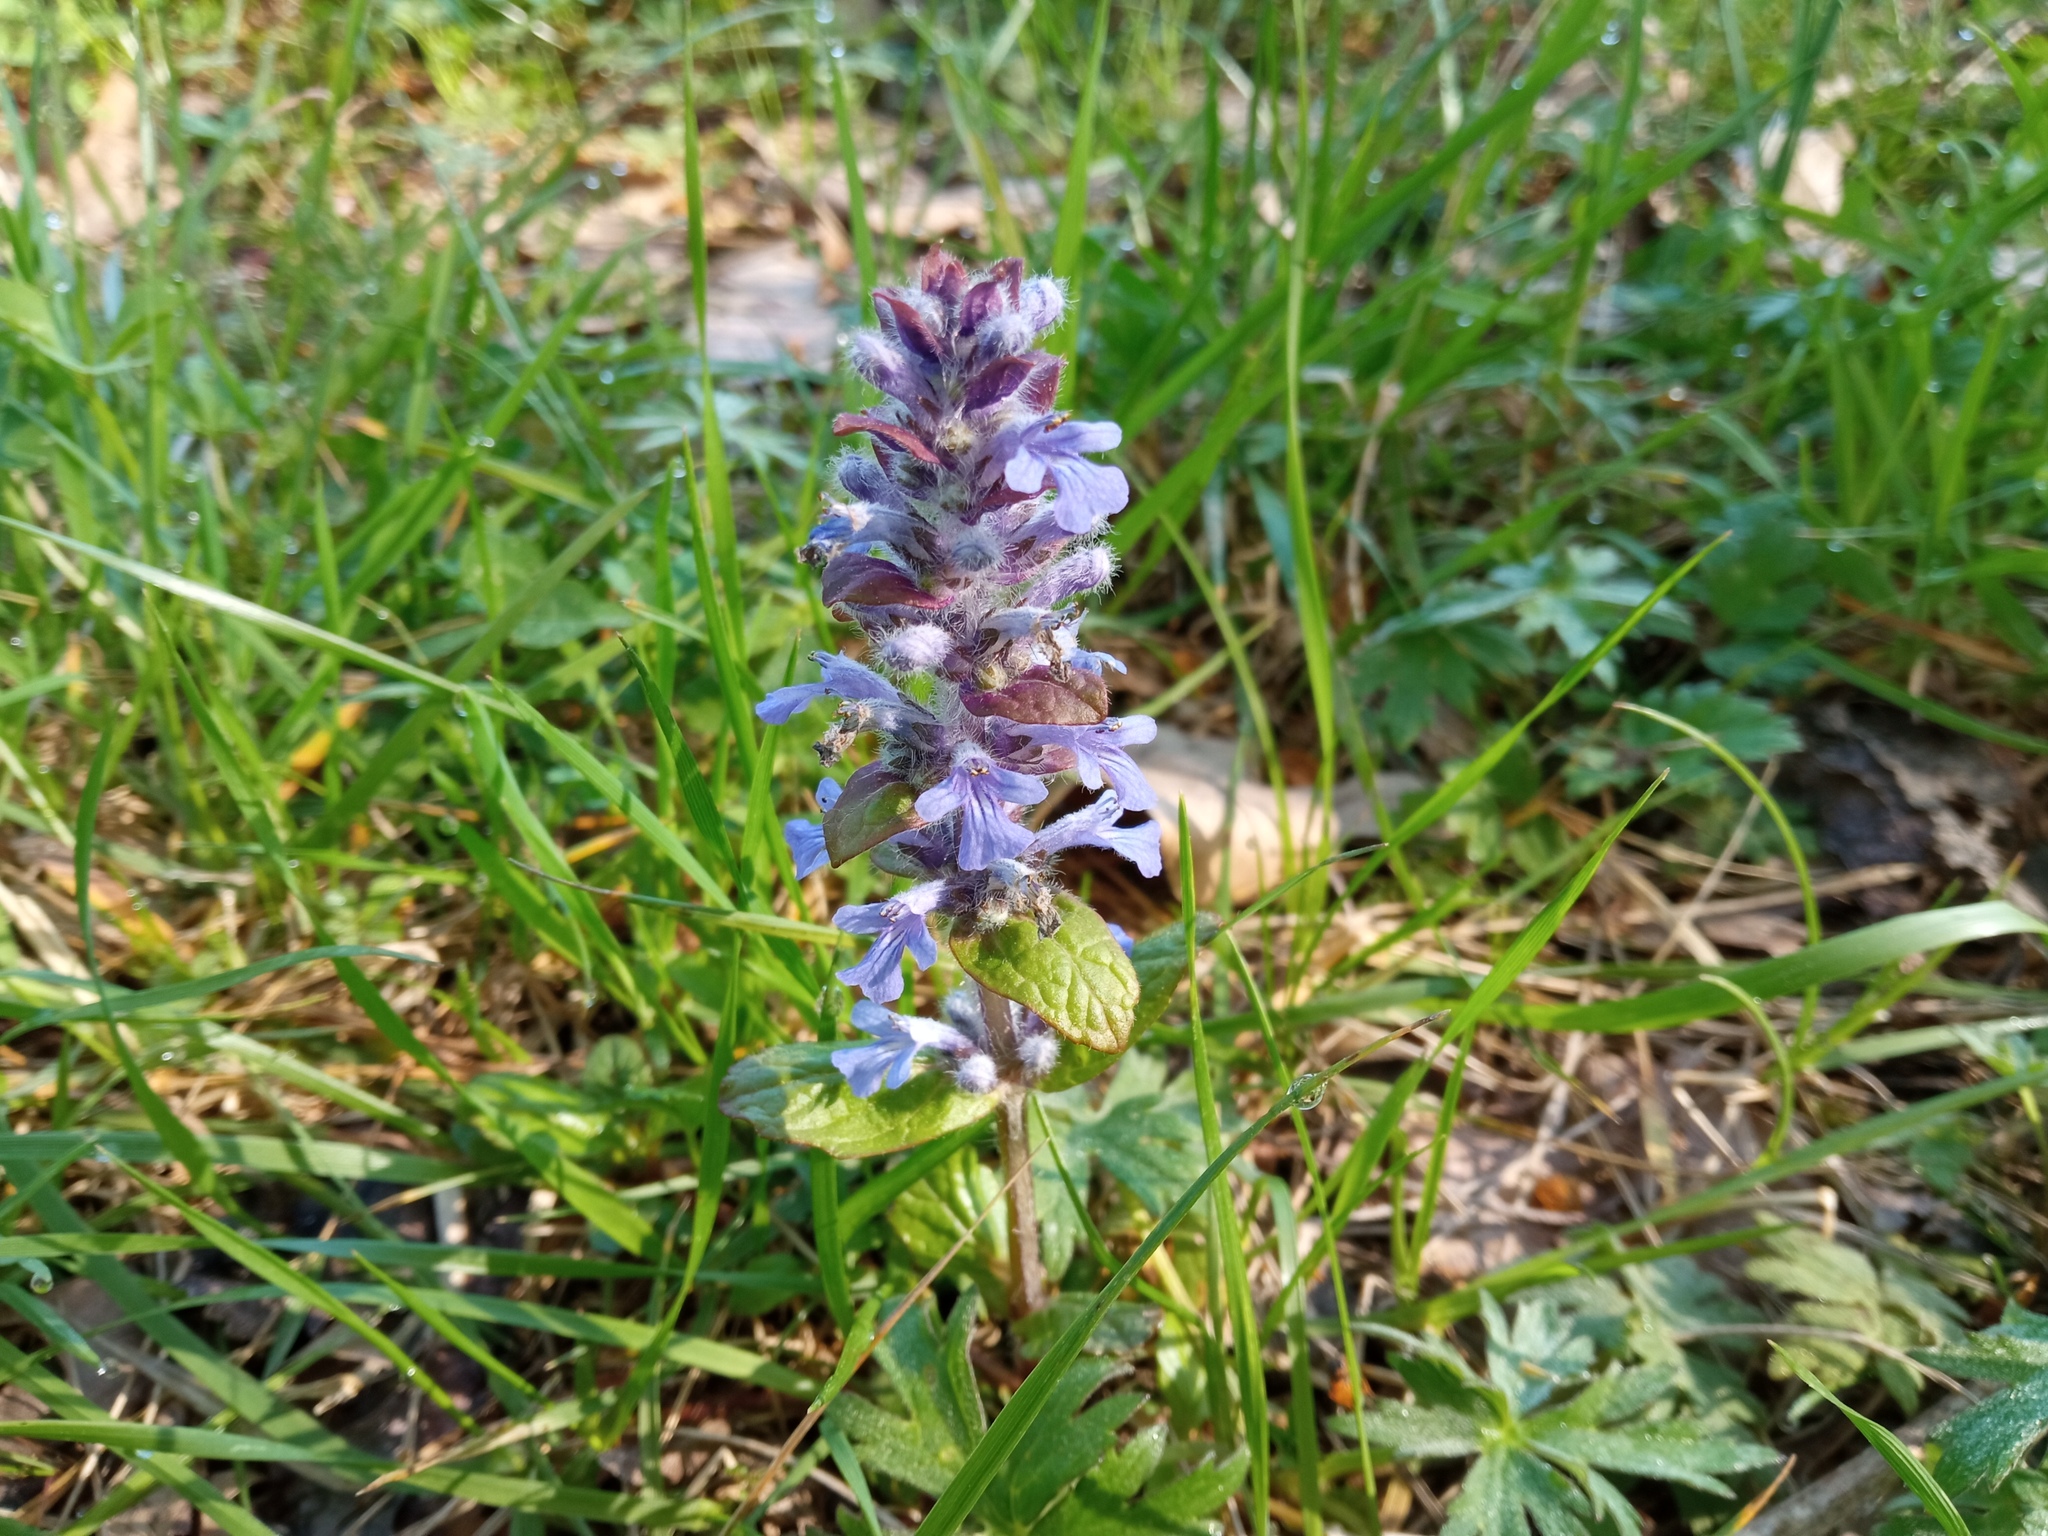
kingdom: Plantae
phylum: Tracheophyta
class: Magnoliopsida
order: Lamiales
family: Lamiaceae
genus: Ajuga
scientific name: Ajuga reptans
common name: Bugle
